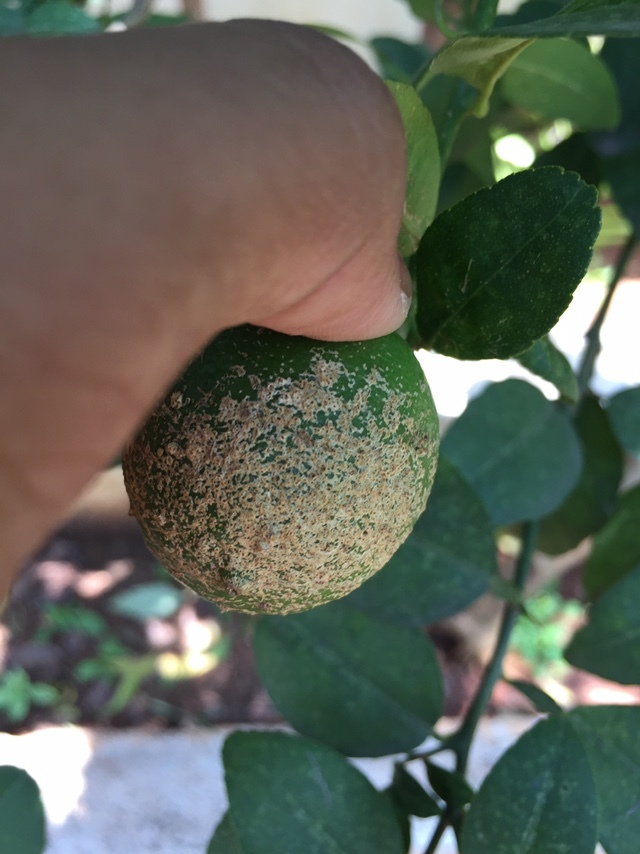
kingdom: Animalia
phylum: Arthropoda
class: Arachnida
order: Trombidiformes
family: Eriophyidae
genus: Phyllocoptruta
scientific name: Phyllocoptruta oleivora
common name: Citrus rust mite
